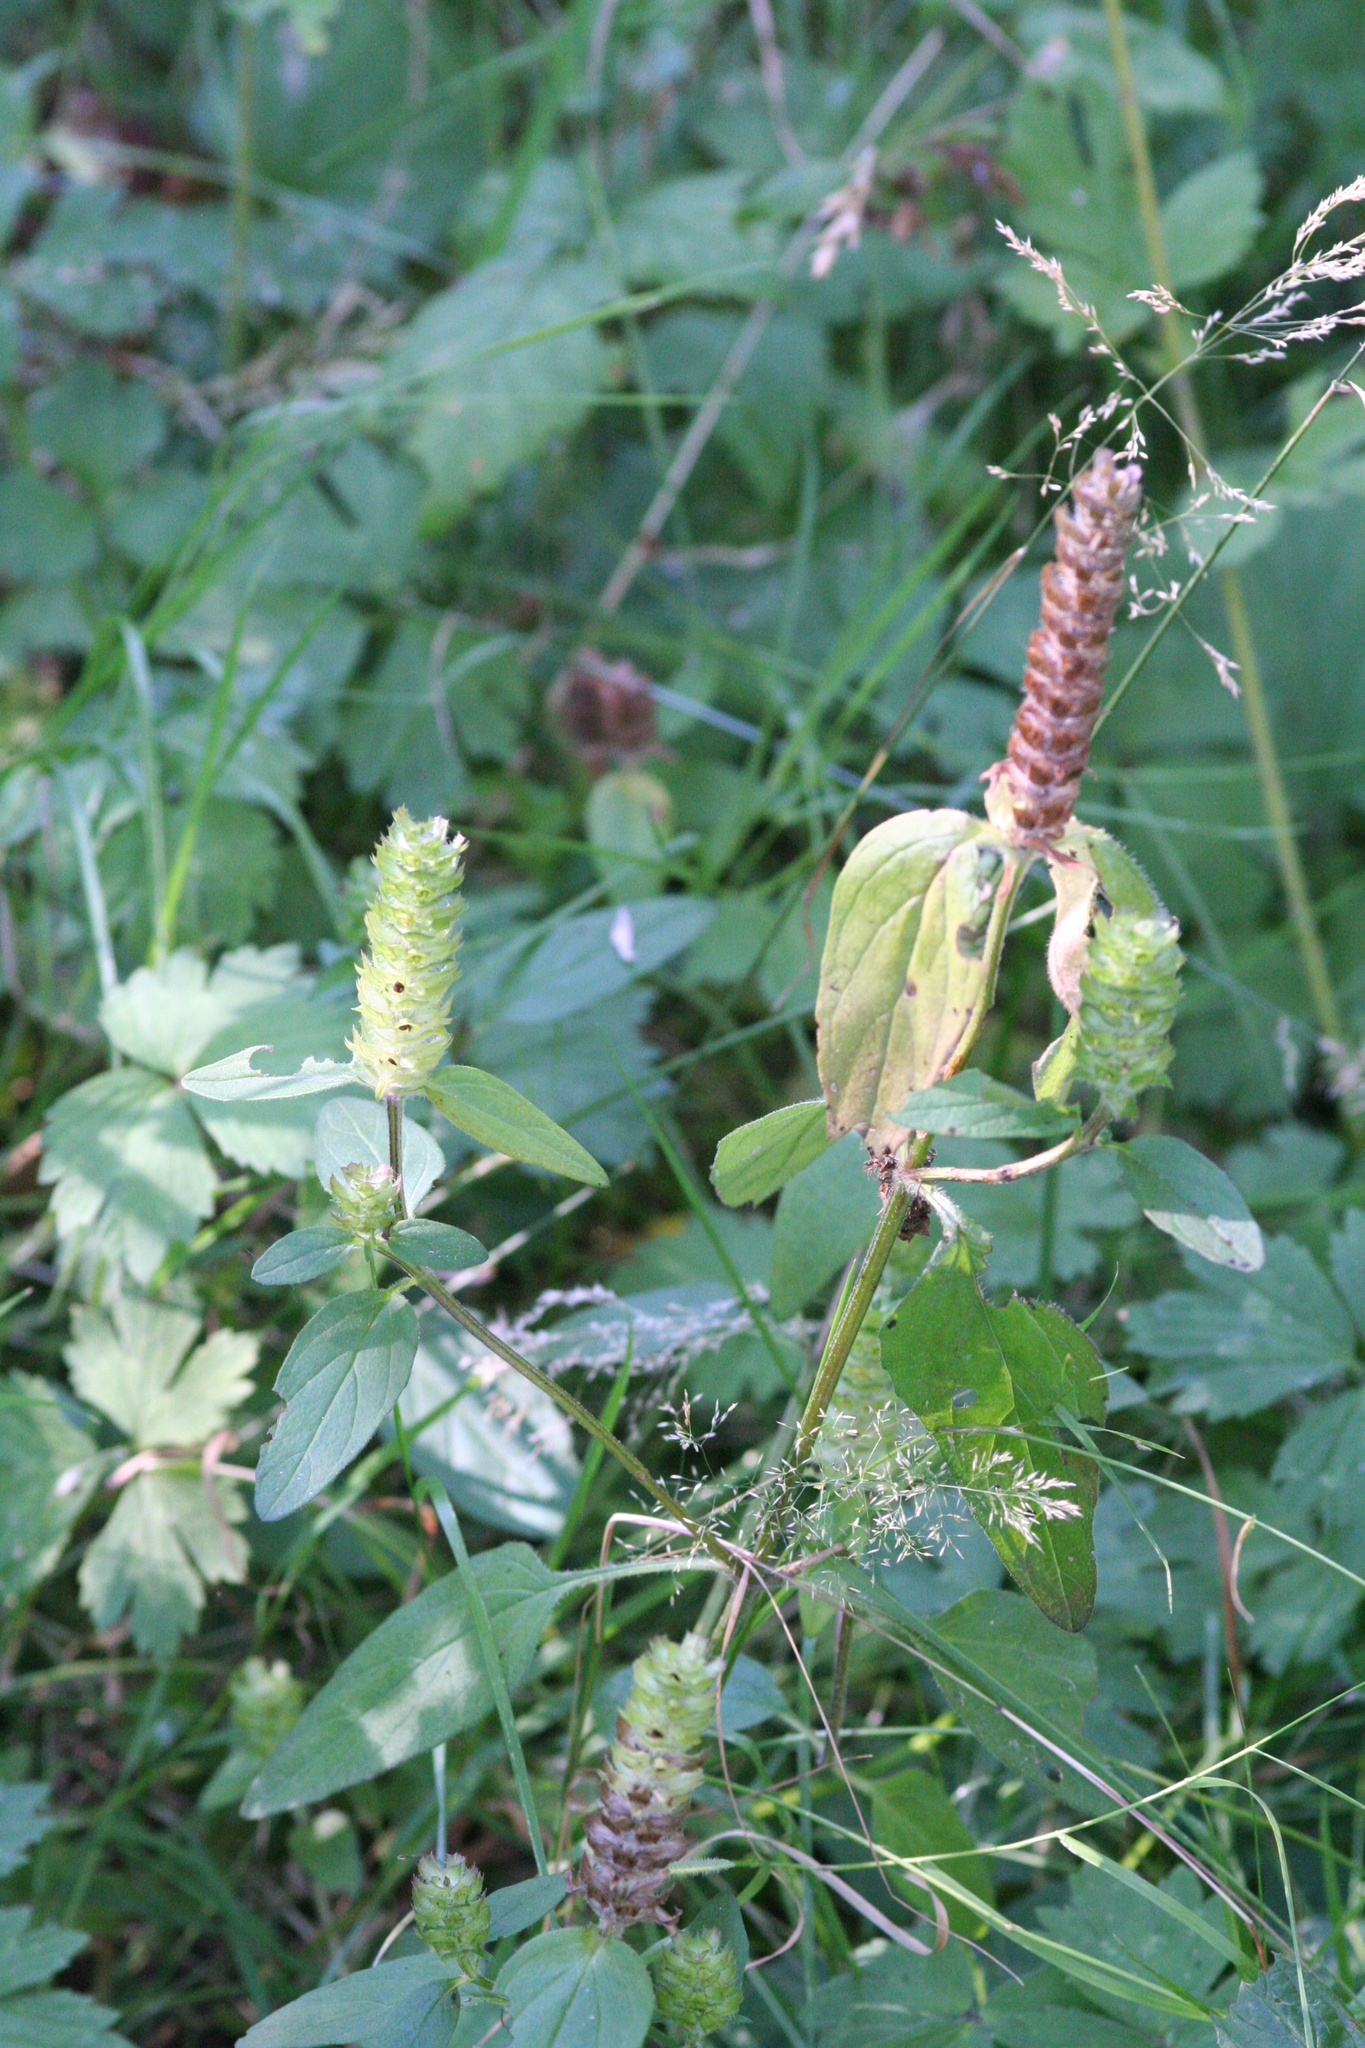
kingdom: Plantae
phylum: Tracheophyta
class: Magnoliopsida
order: Lamiales
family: Lamiaceae
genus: Prunella
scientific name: Prunella vulgaris
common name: Heal-all
